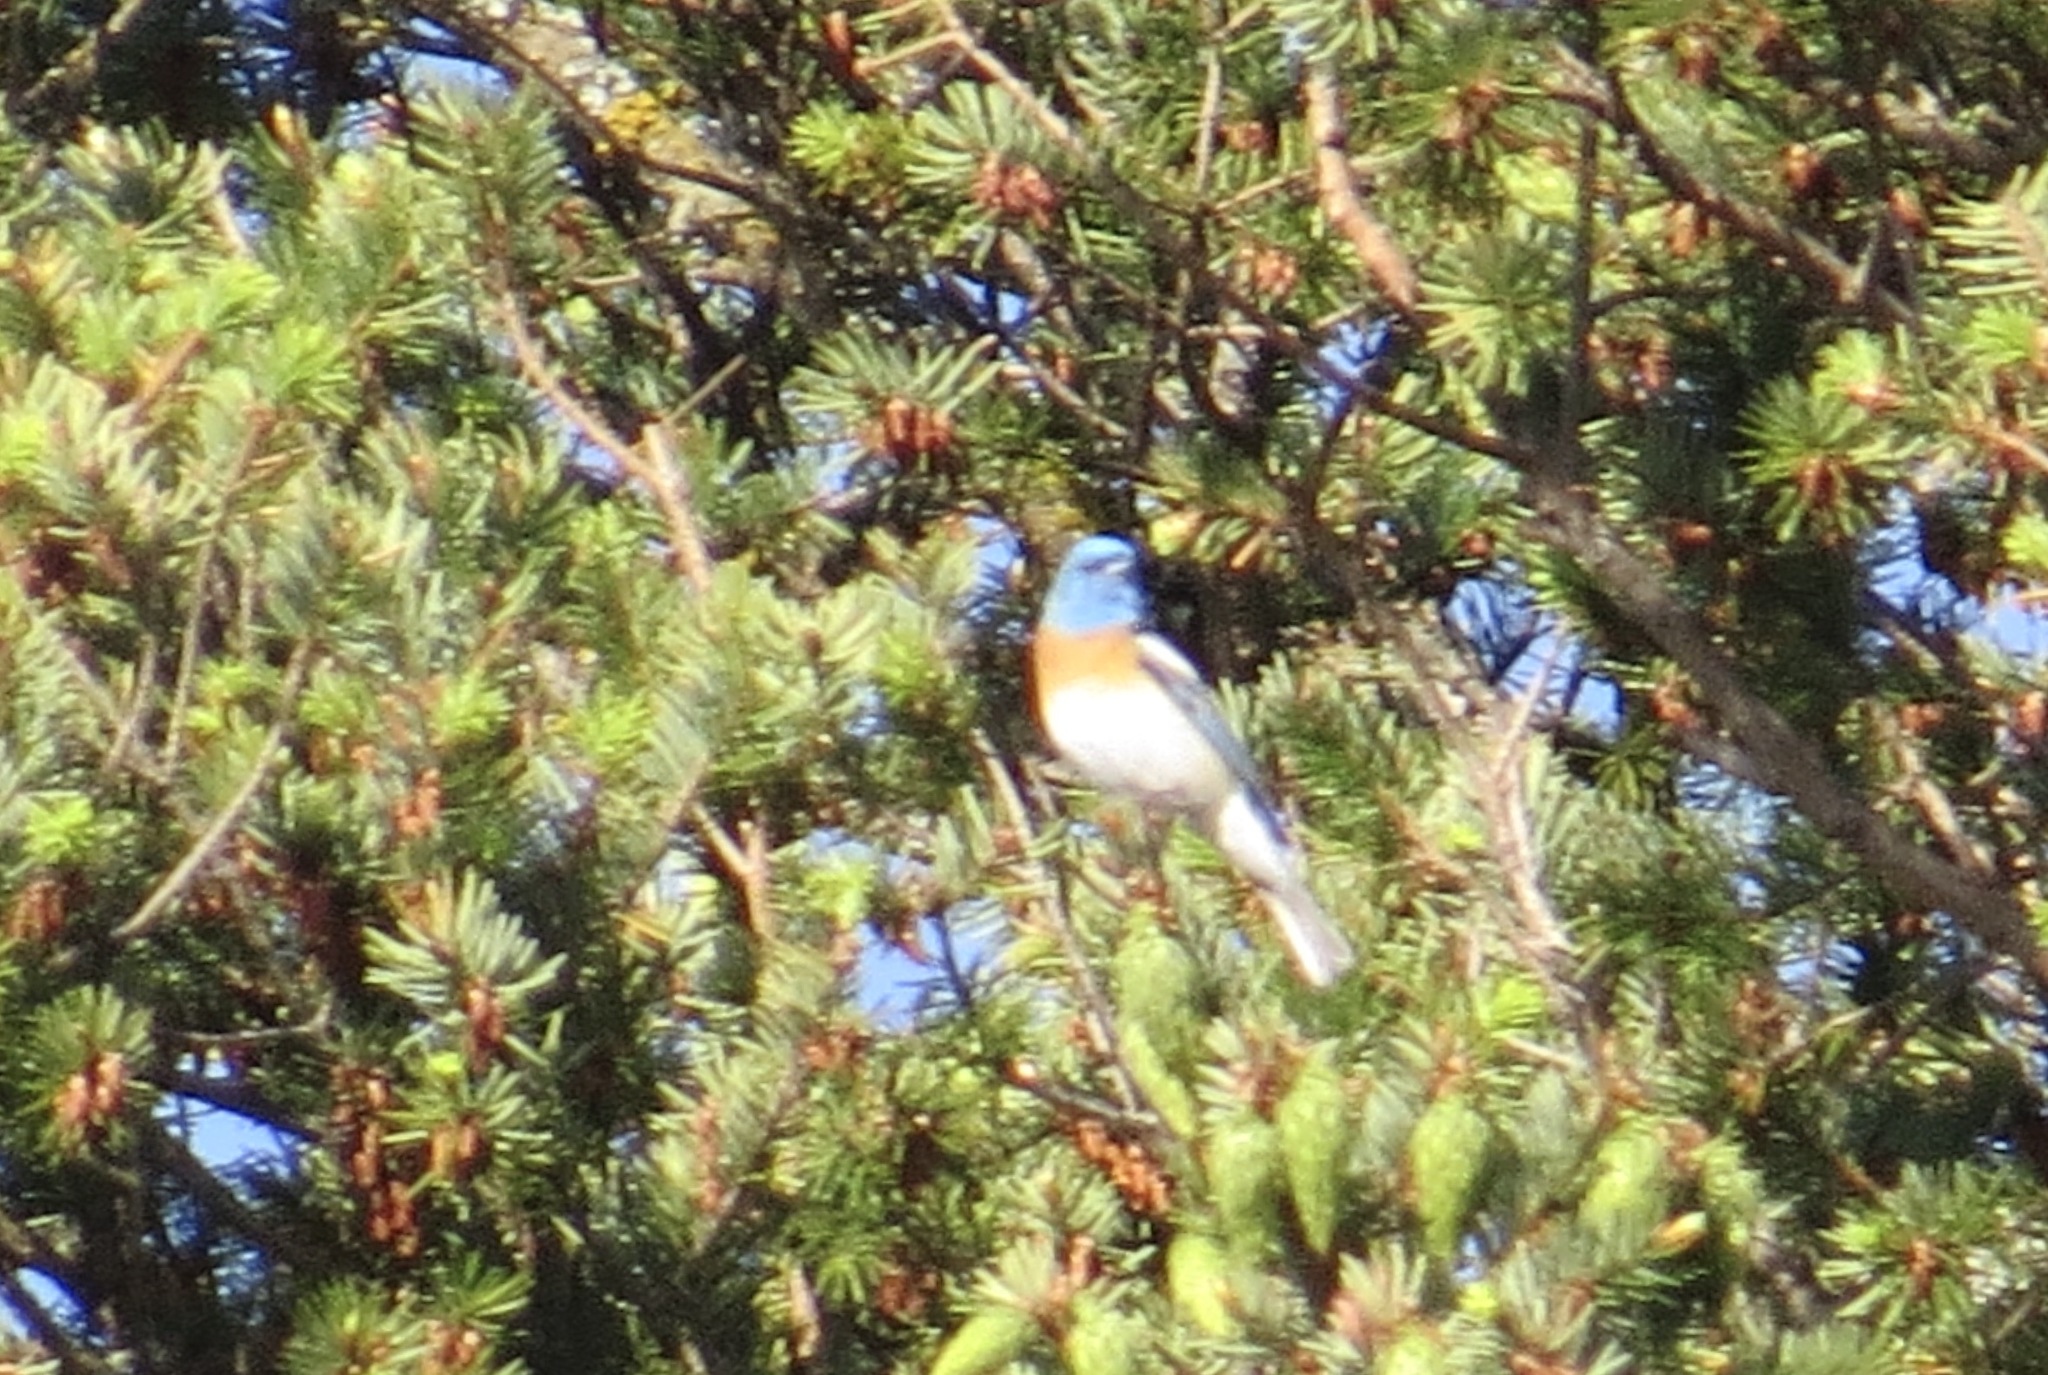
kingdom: Animalia
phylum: Chordata
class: Aves
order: Passeriformes
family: Cardinalidae
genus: Passerina
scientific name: Passerina amoena
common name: Lazuli bunting
